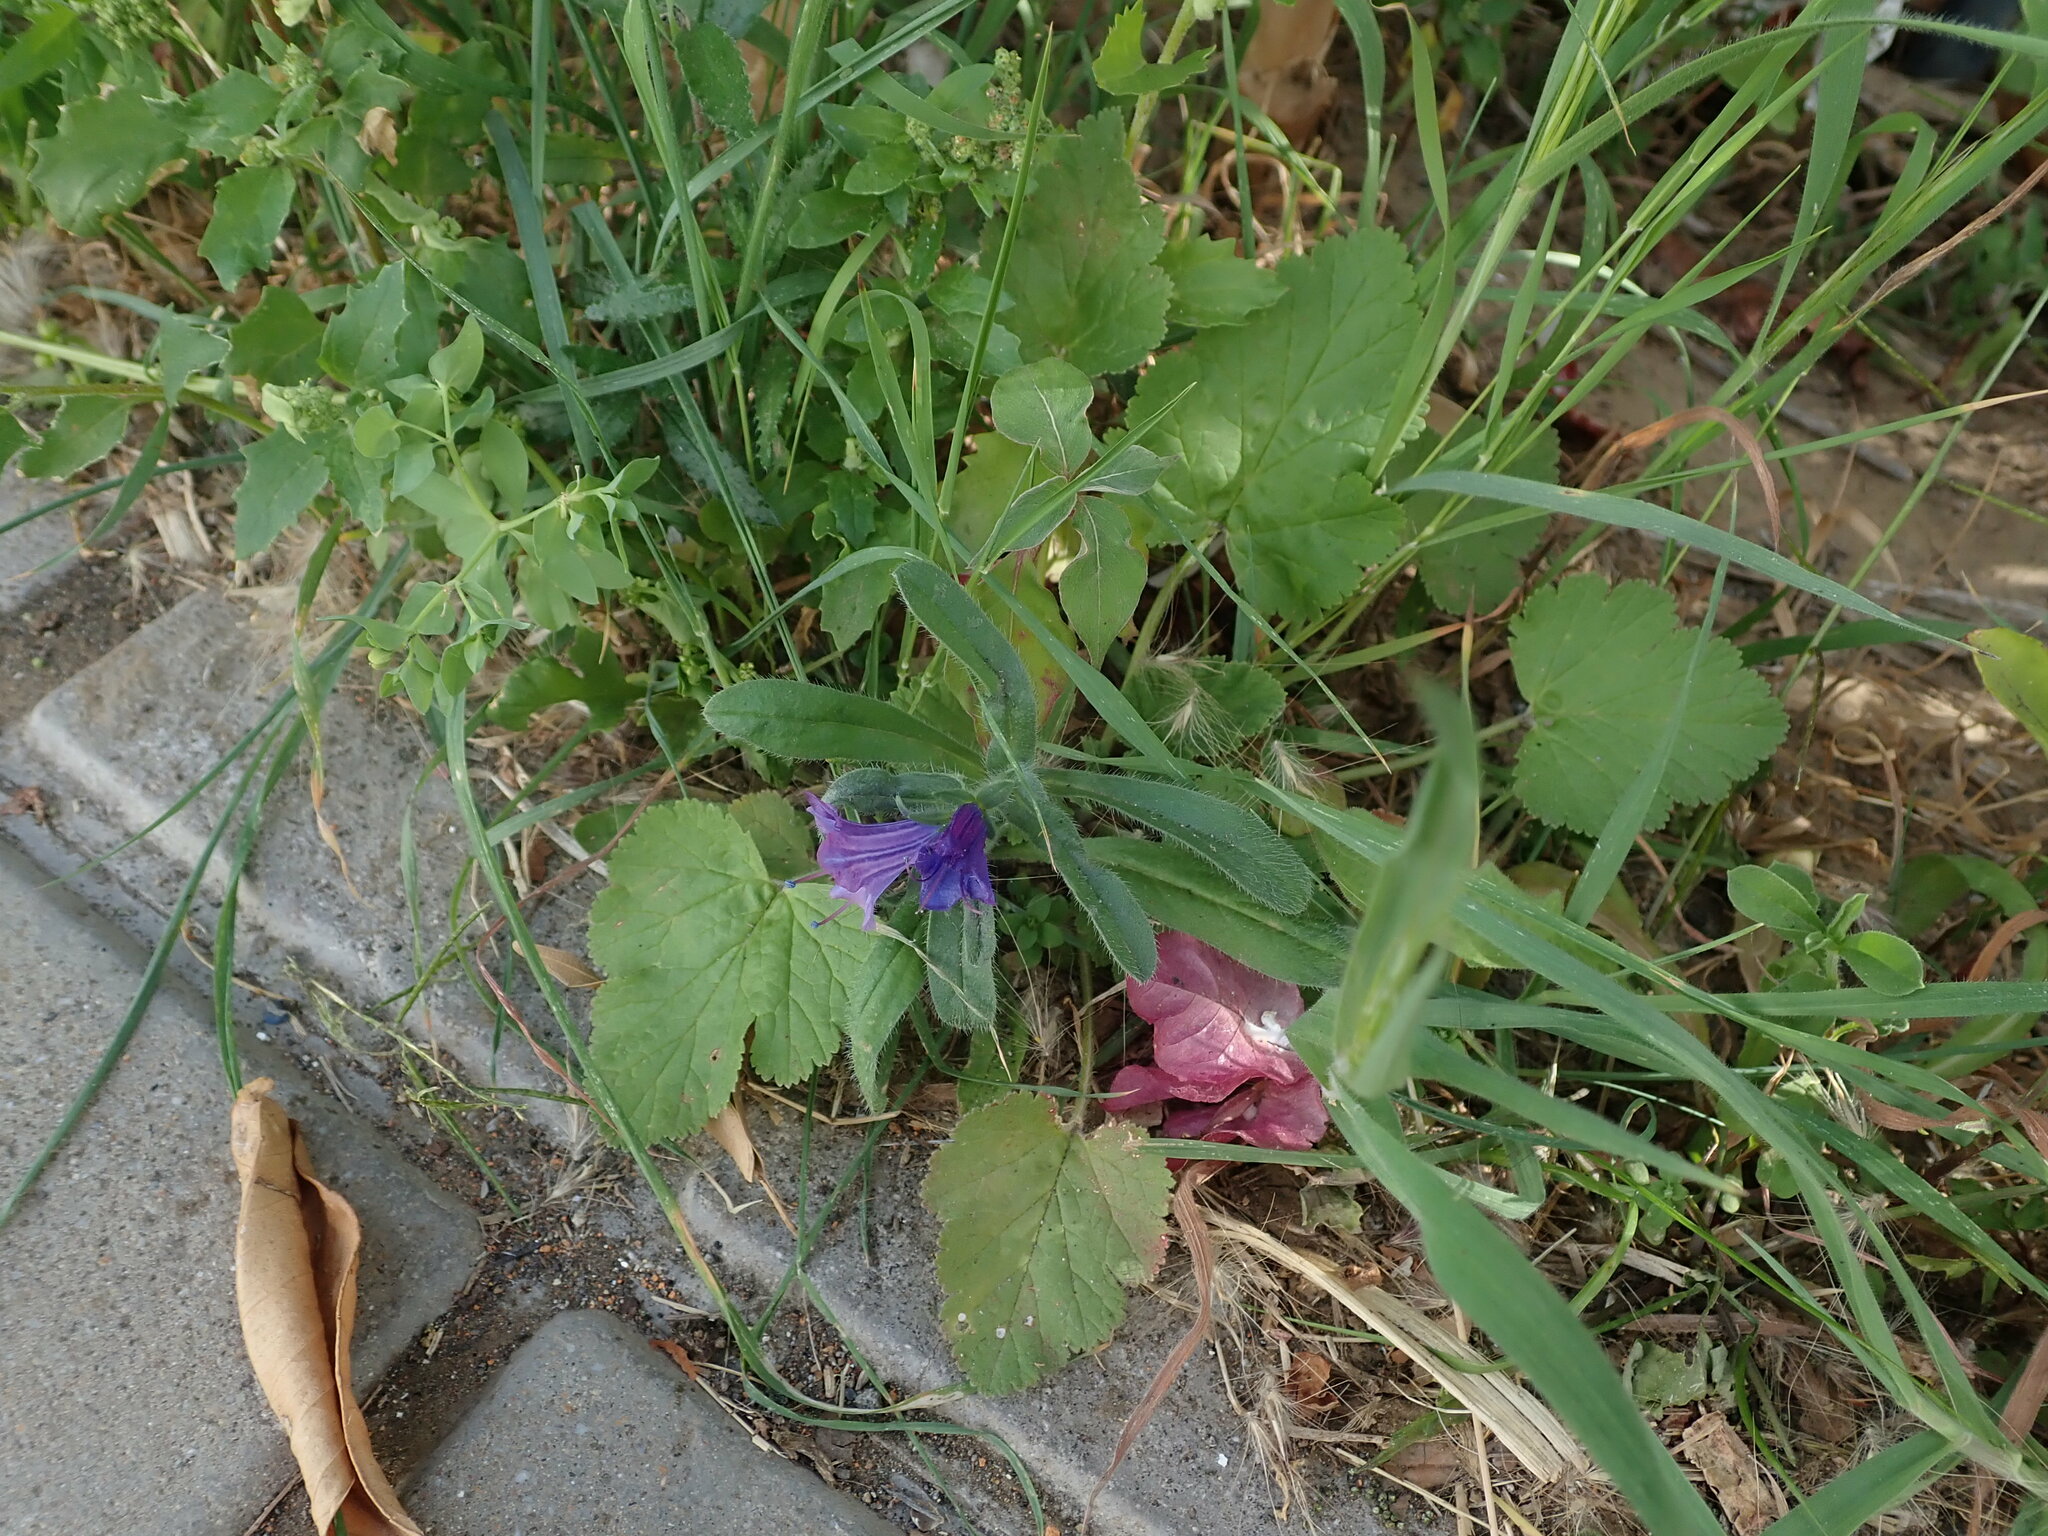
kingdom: Plantae
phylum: Tracheophyta
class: Magnoliopsida
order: Boraginales
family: Boraginaceae
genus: Echium
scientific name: Echium plantagineum
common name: Purple viper's-bugloss
